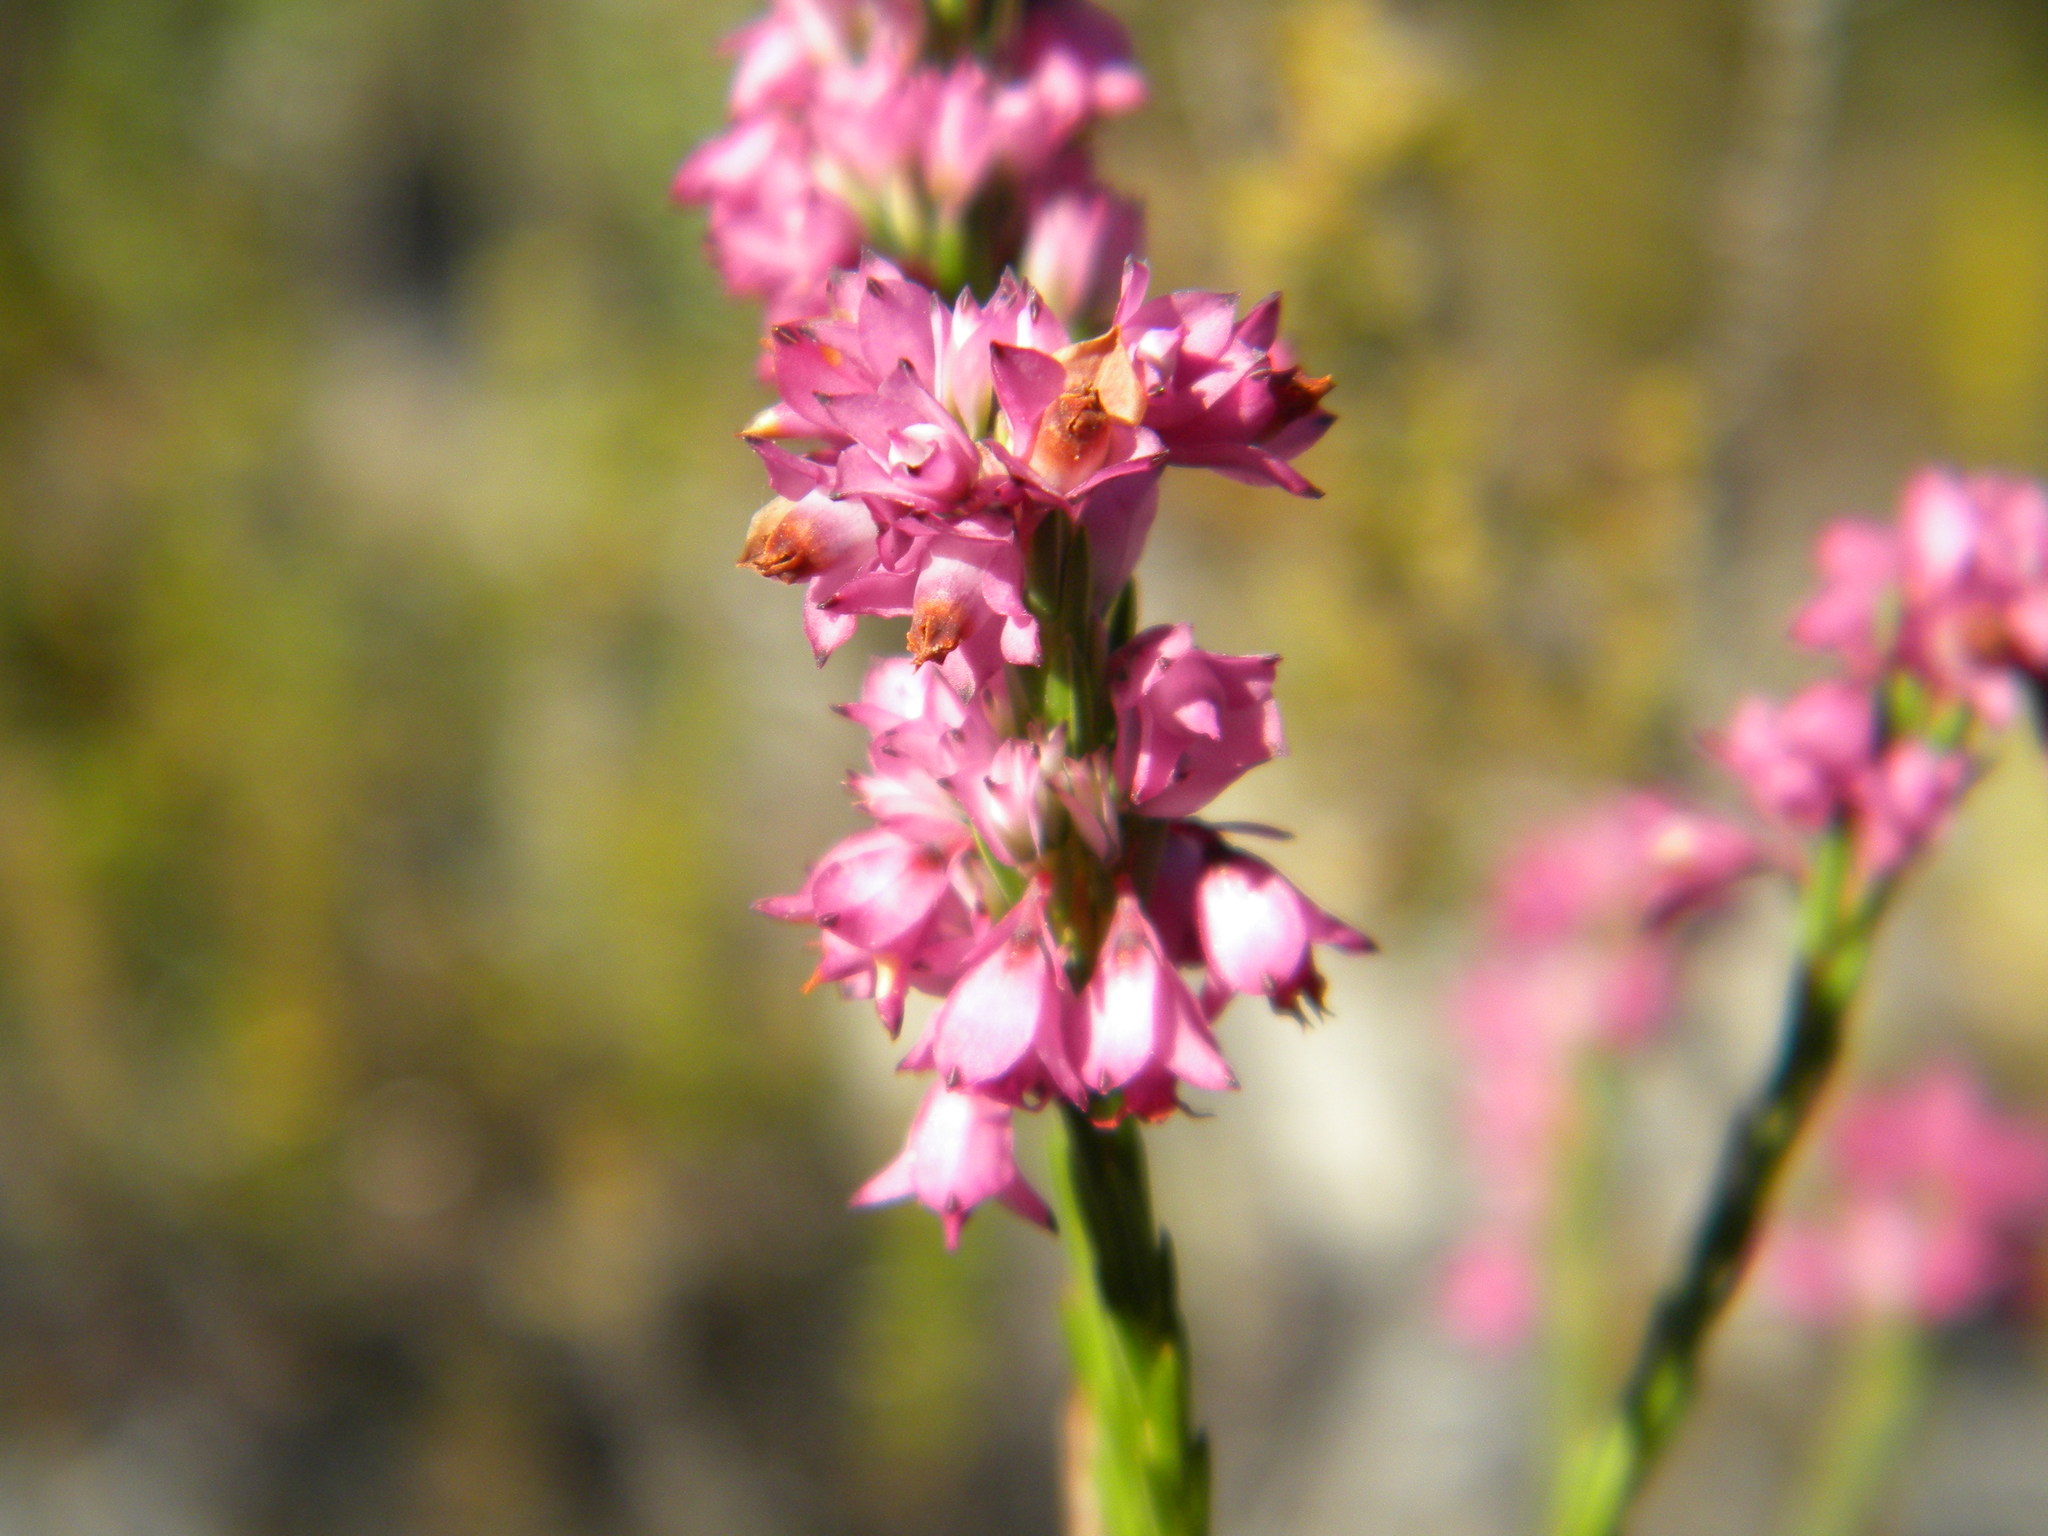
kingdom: Plantae
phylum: Tracheophyta
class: Magnoliopsida
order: Ericales
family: Ericaceae
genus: Erica
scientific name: Erica corifolia
